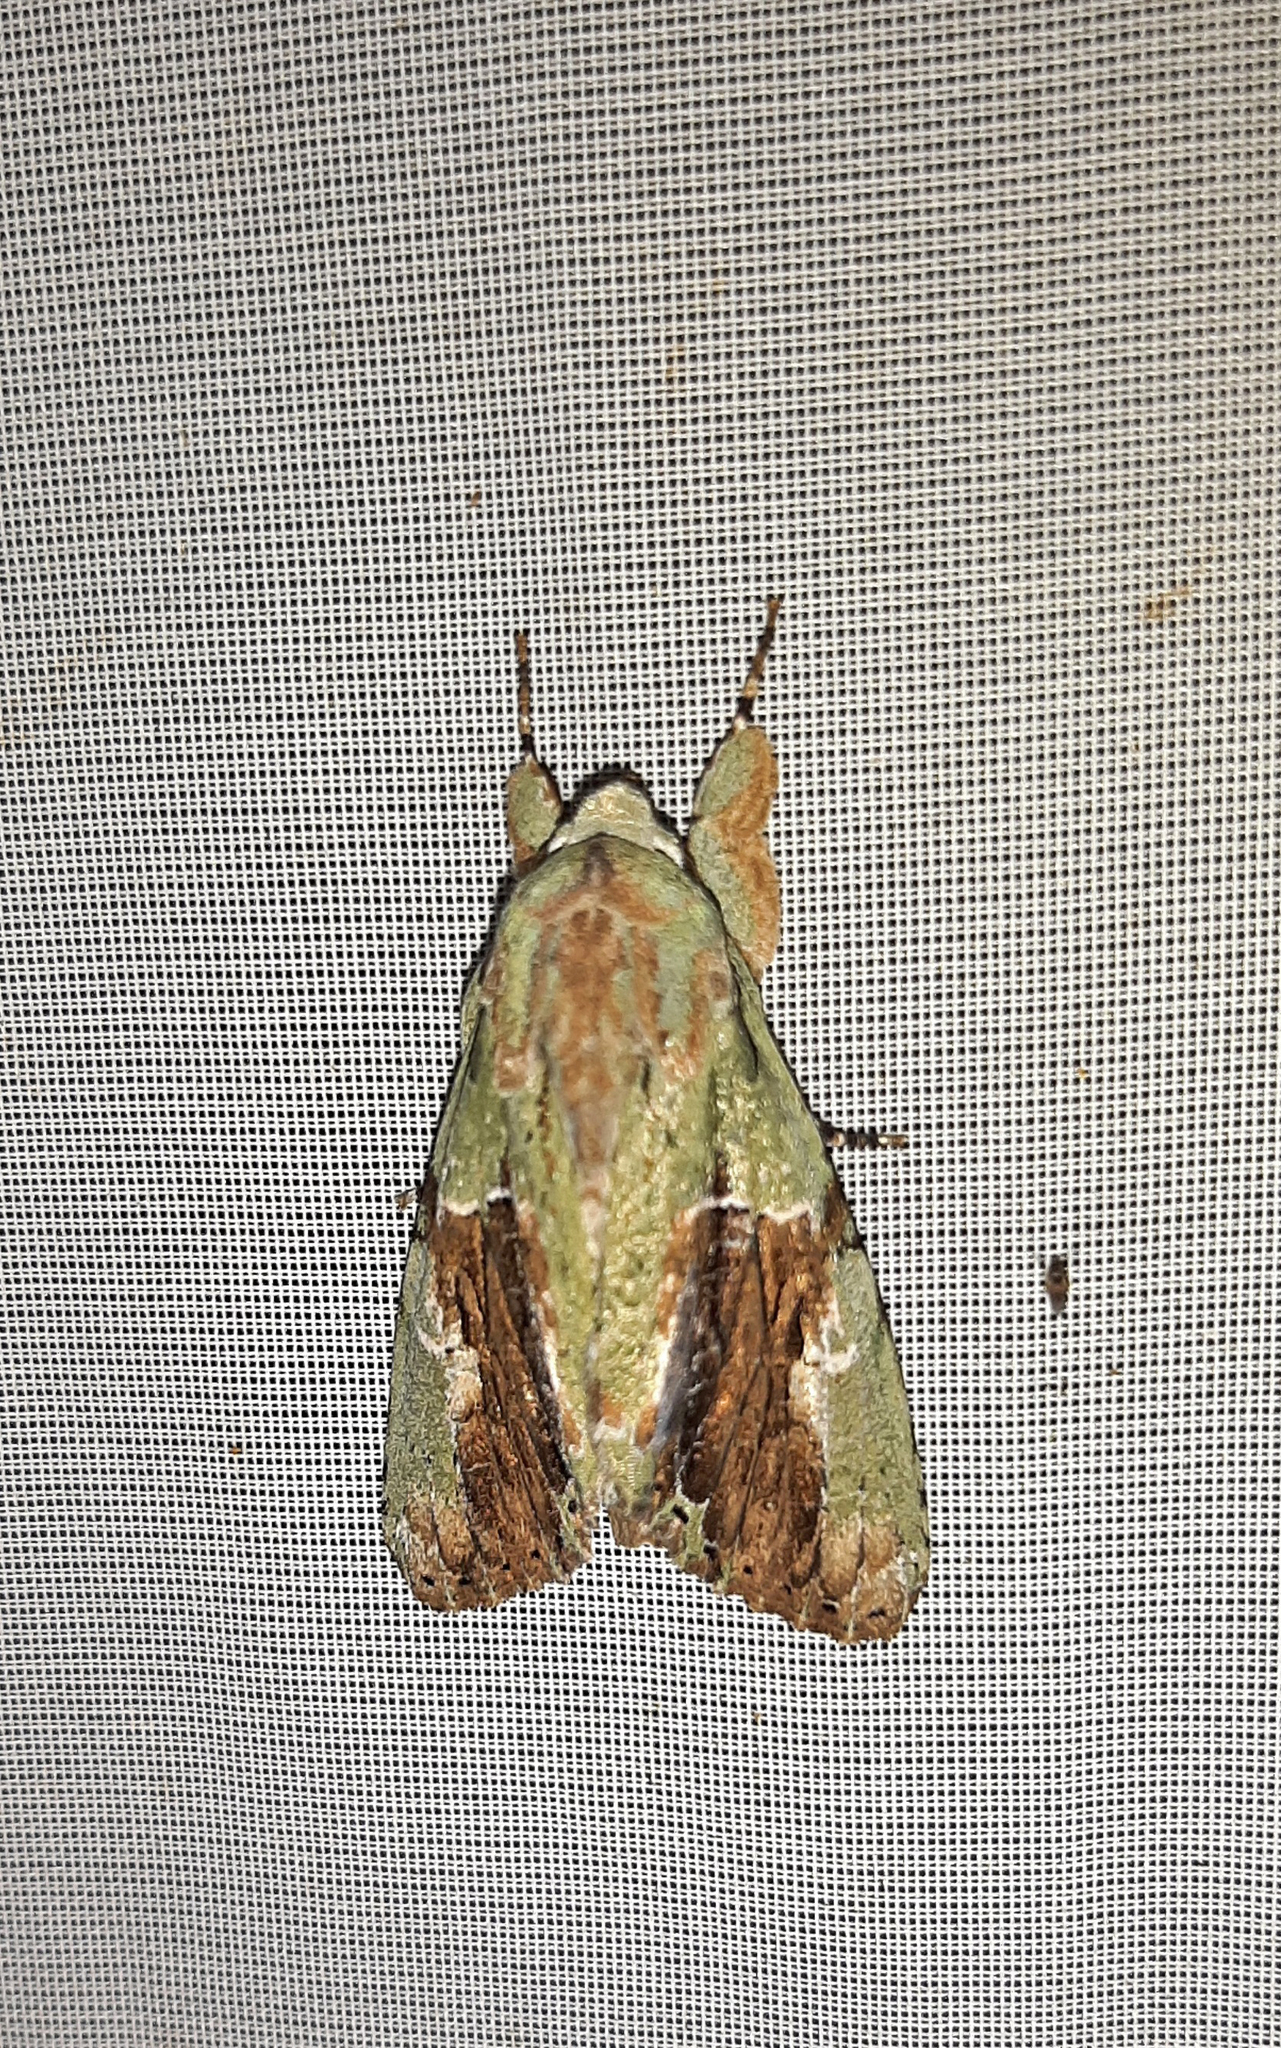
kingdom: Animalia
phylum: Arthropoda
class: Insecta
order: Lepidoptera
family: Noctuidae
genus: Stauropides
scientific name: Stauropides superba
